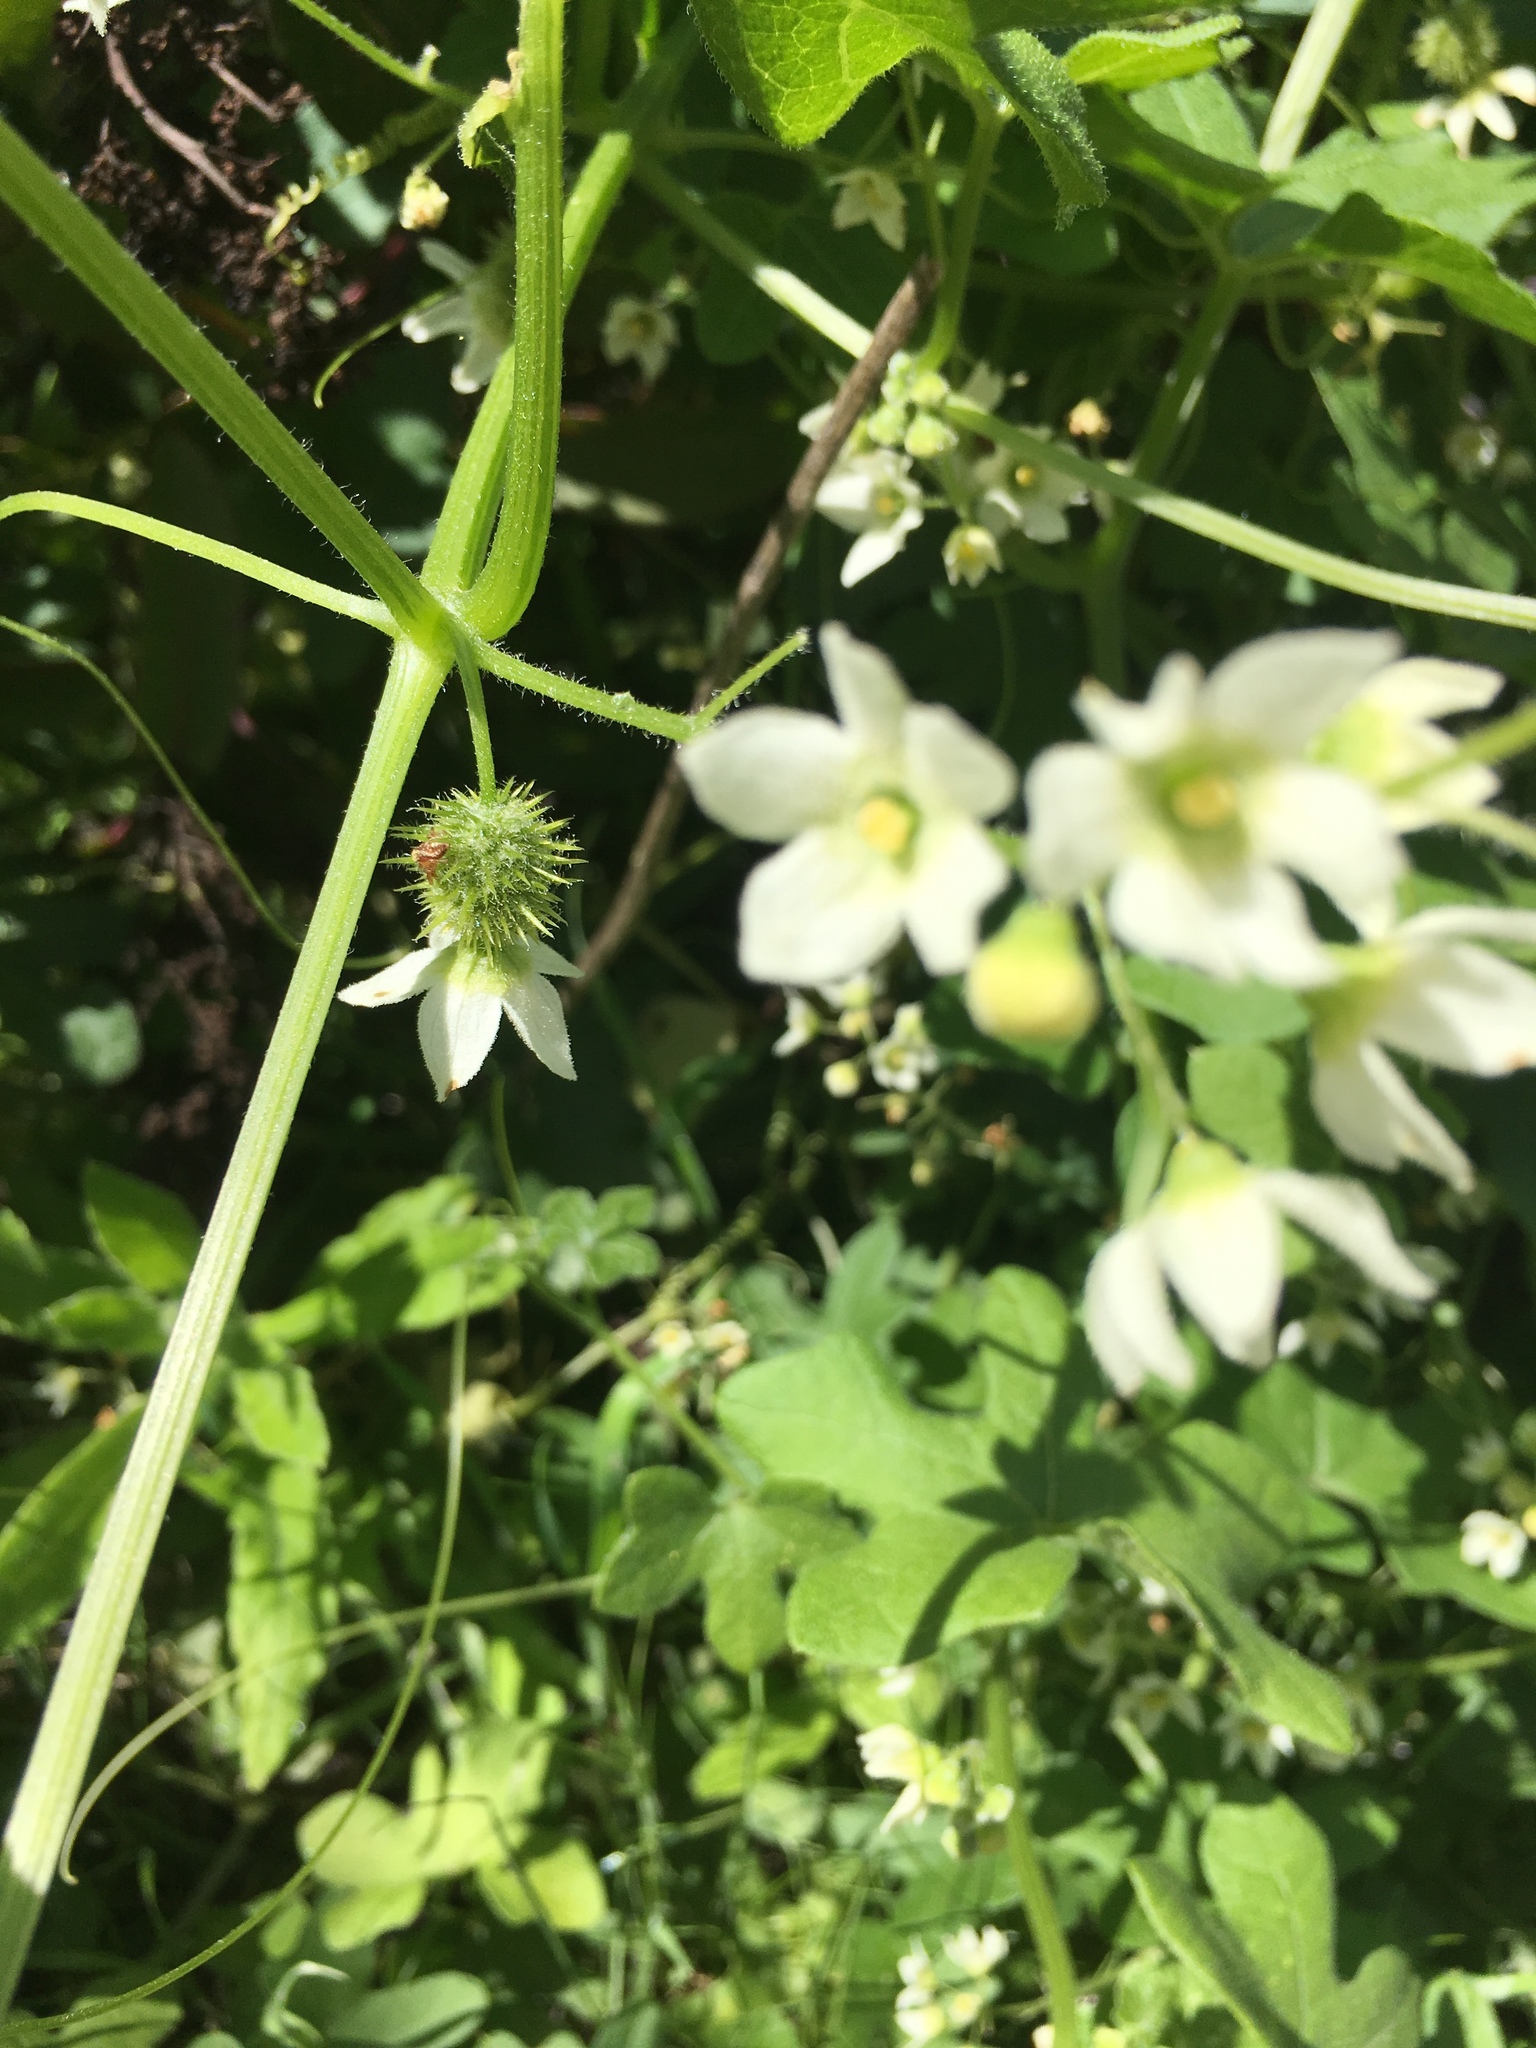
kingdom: Plantae
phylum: Tracheophyta
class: Magnoliopsida
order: Cucurbitales
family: Cucurbitaceae
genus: Marah
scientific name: Marah macrocarpa
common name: Cucamonga manroot
